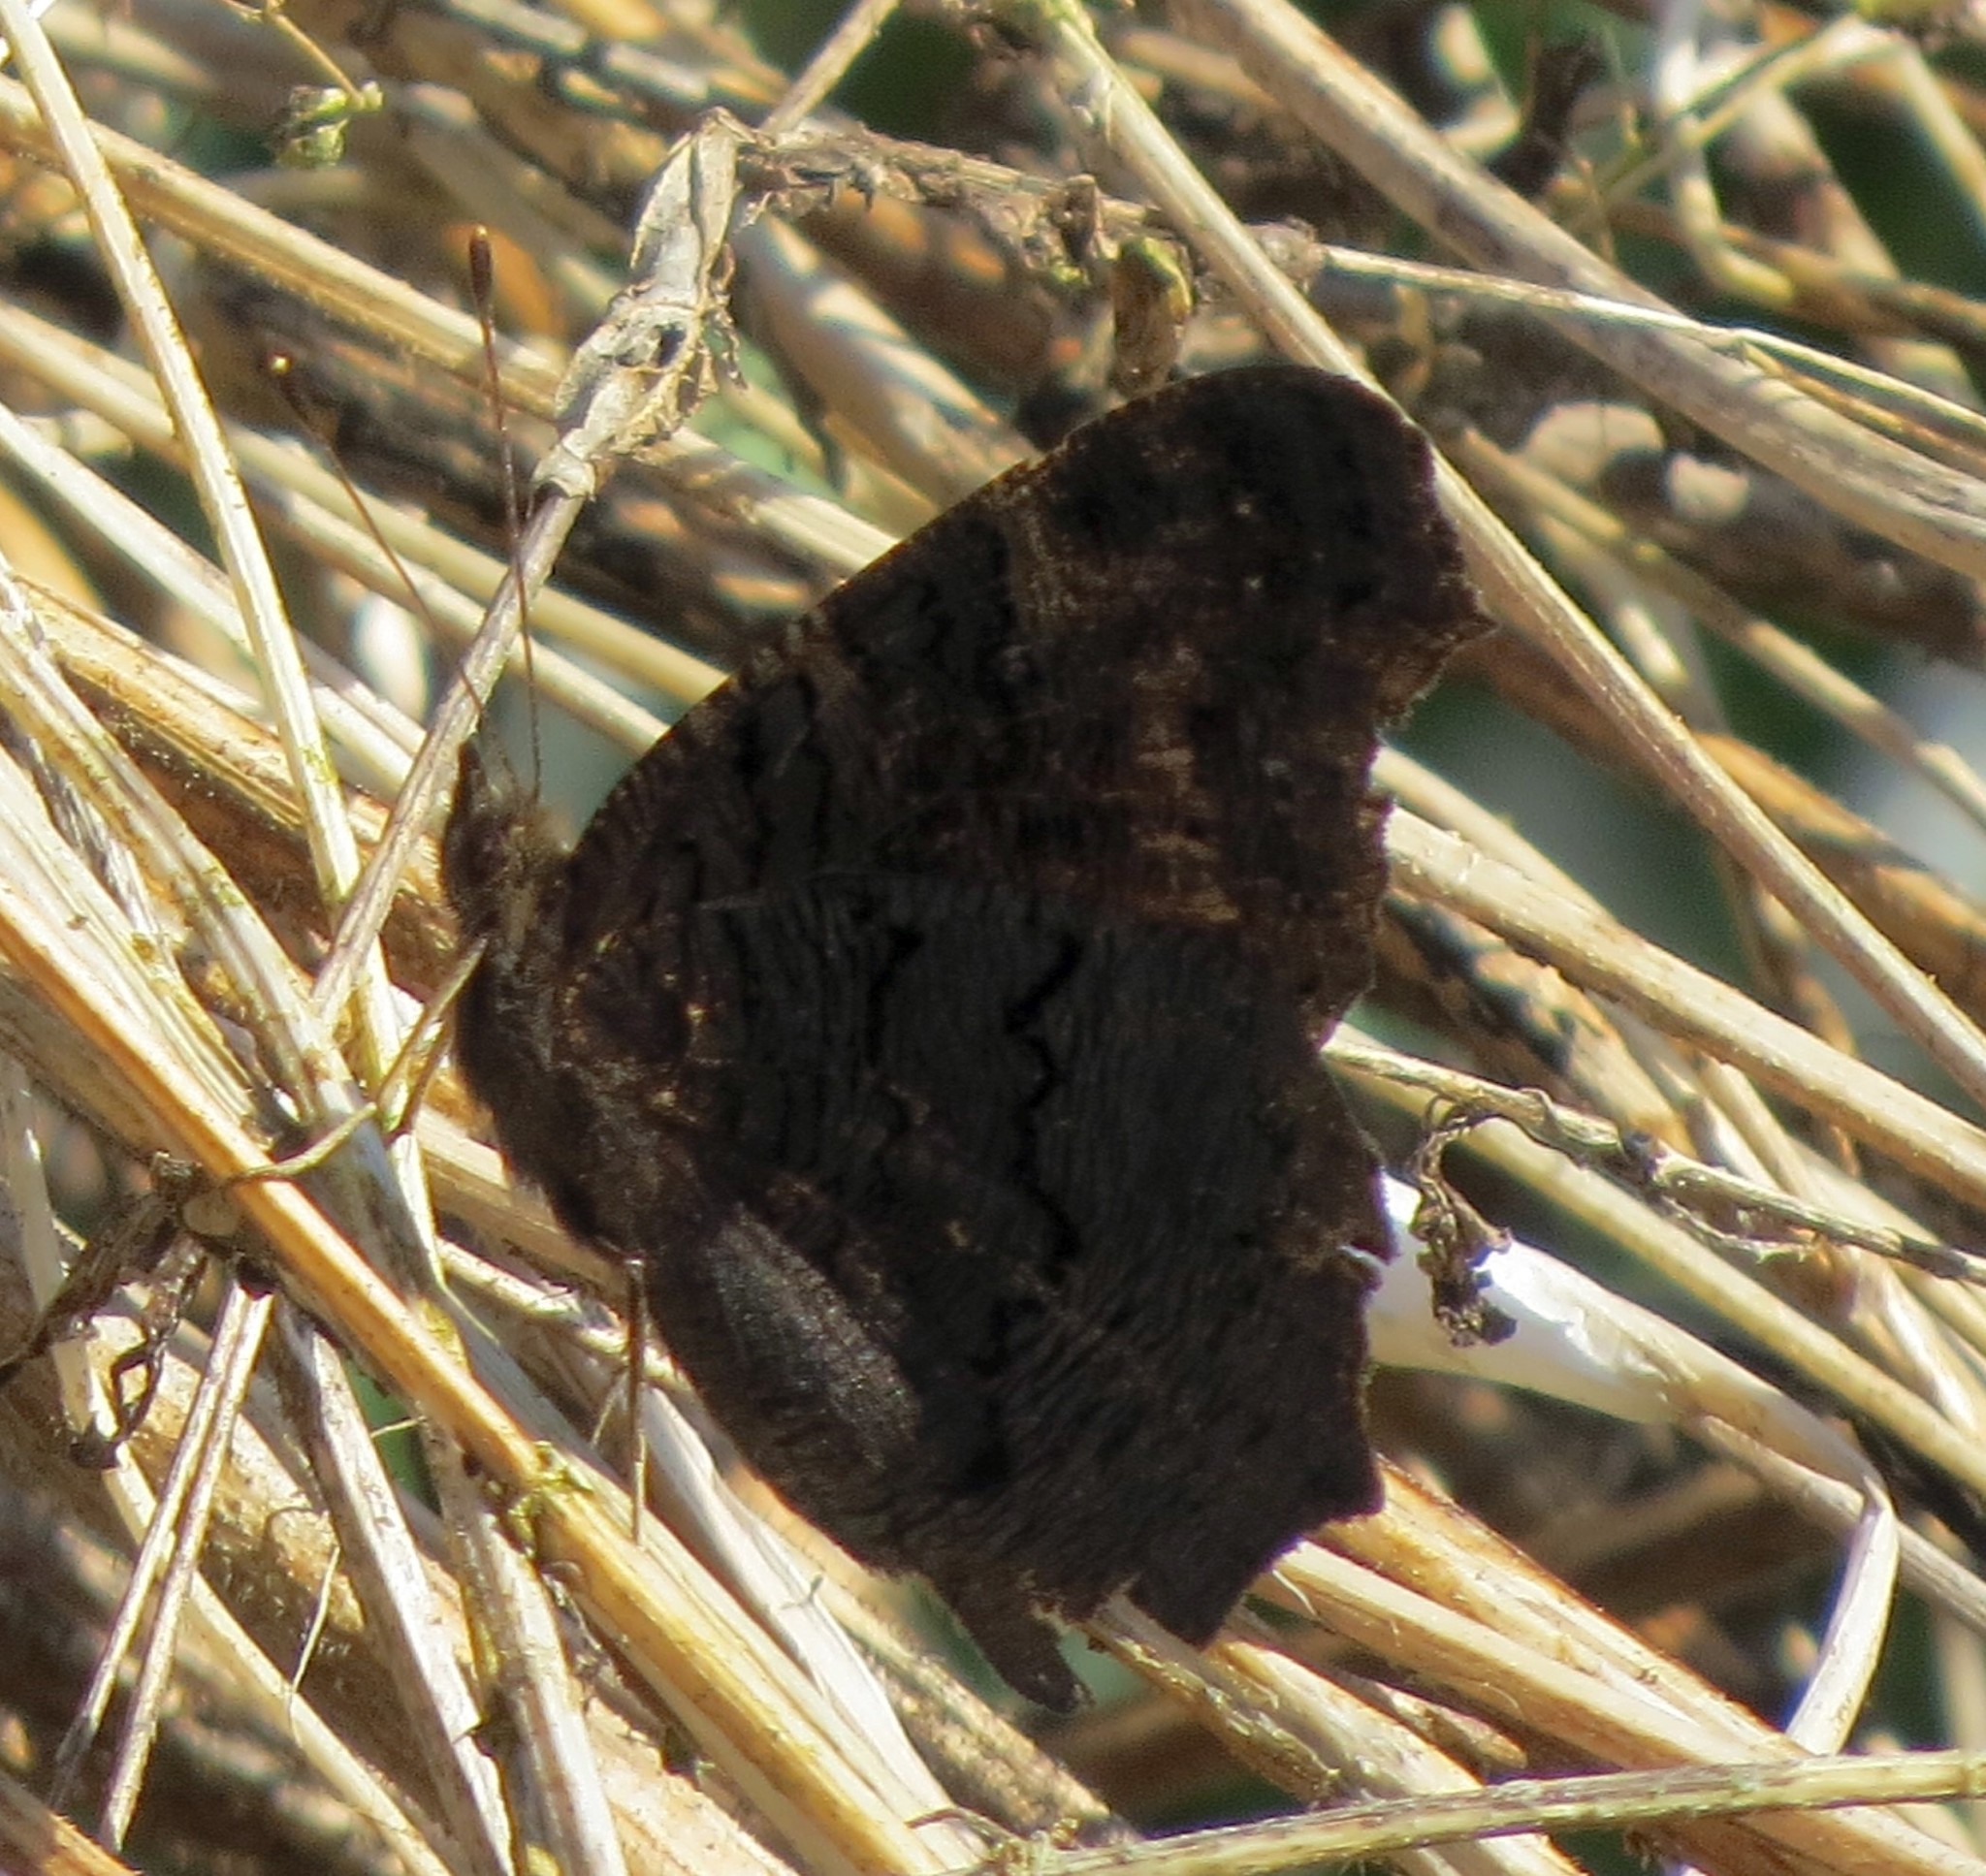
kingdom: Animalia
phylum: Arthropoda
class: Insecta
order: Lepidoptera
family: Nymphalidae
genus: Aglais
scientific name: Aglais io
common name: Peacock
